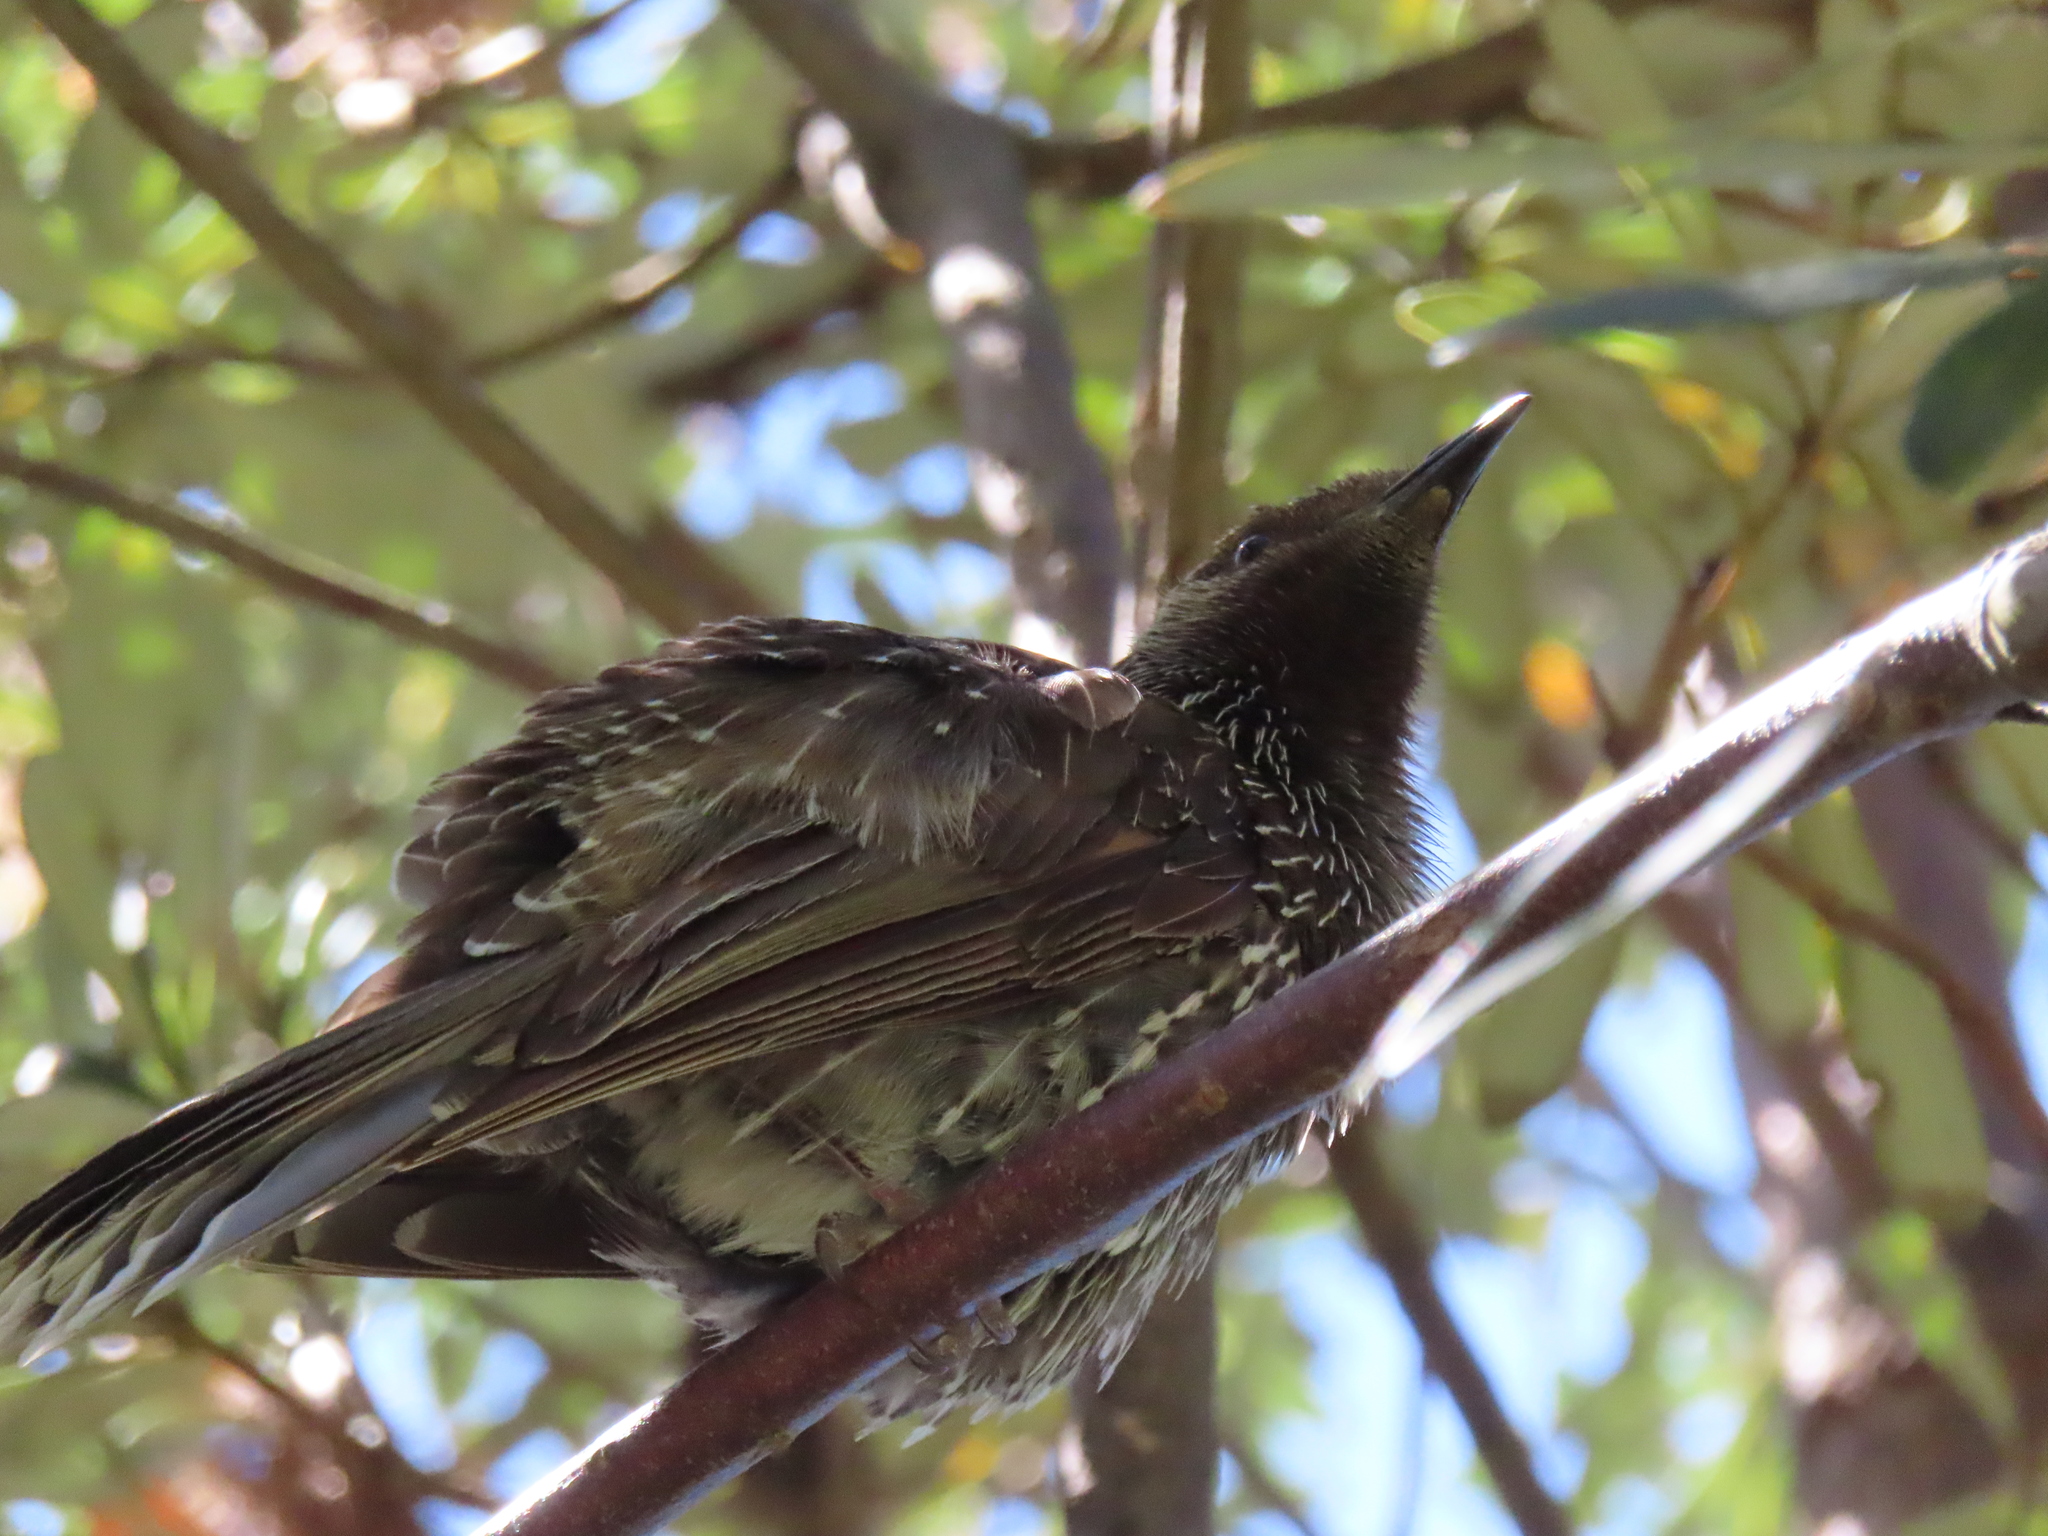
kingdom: Animalia
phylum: Chordata
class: Aves
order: Passeriformes
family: Meliphagidae
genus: Anthochaera
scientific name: Anthochaera chrysoptera
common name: Little wattlebird
